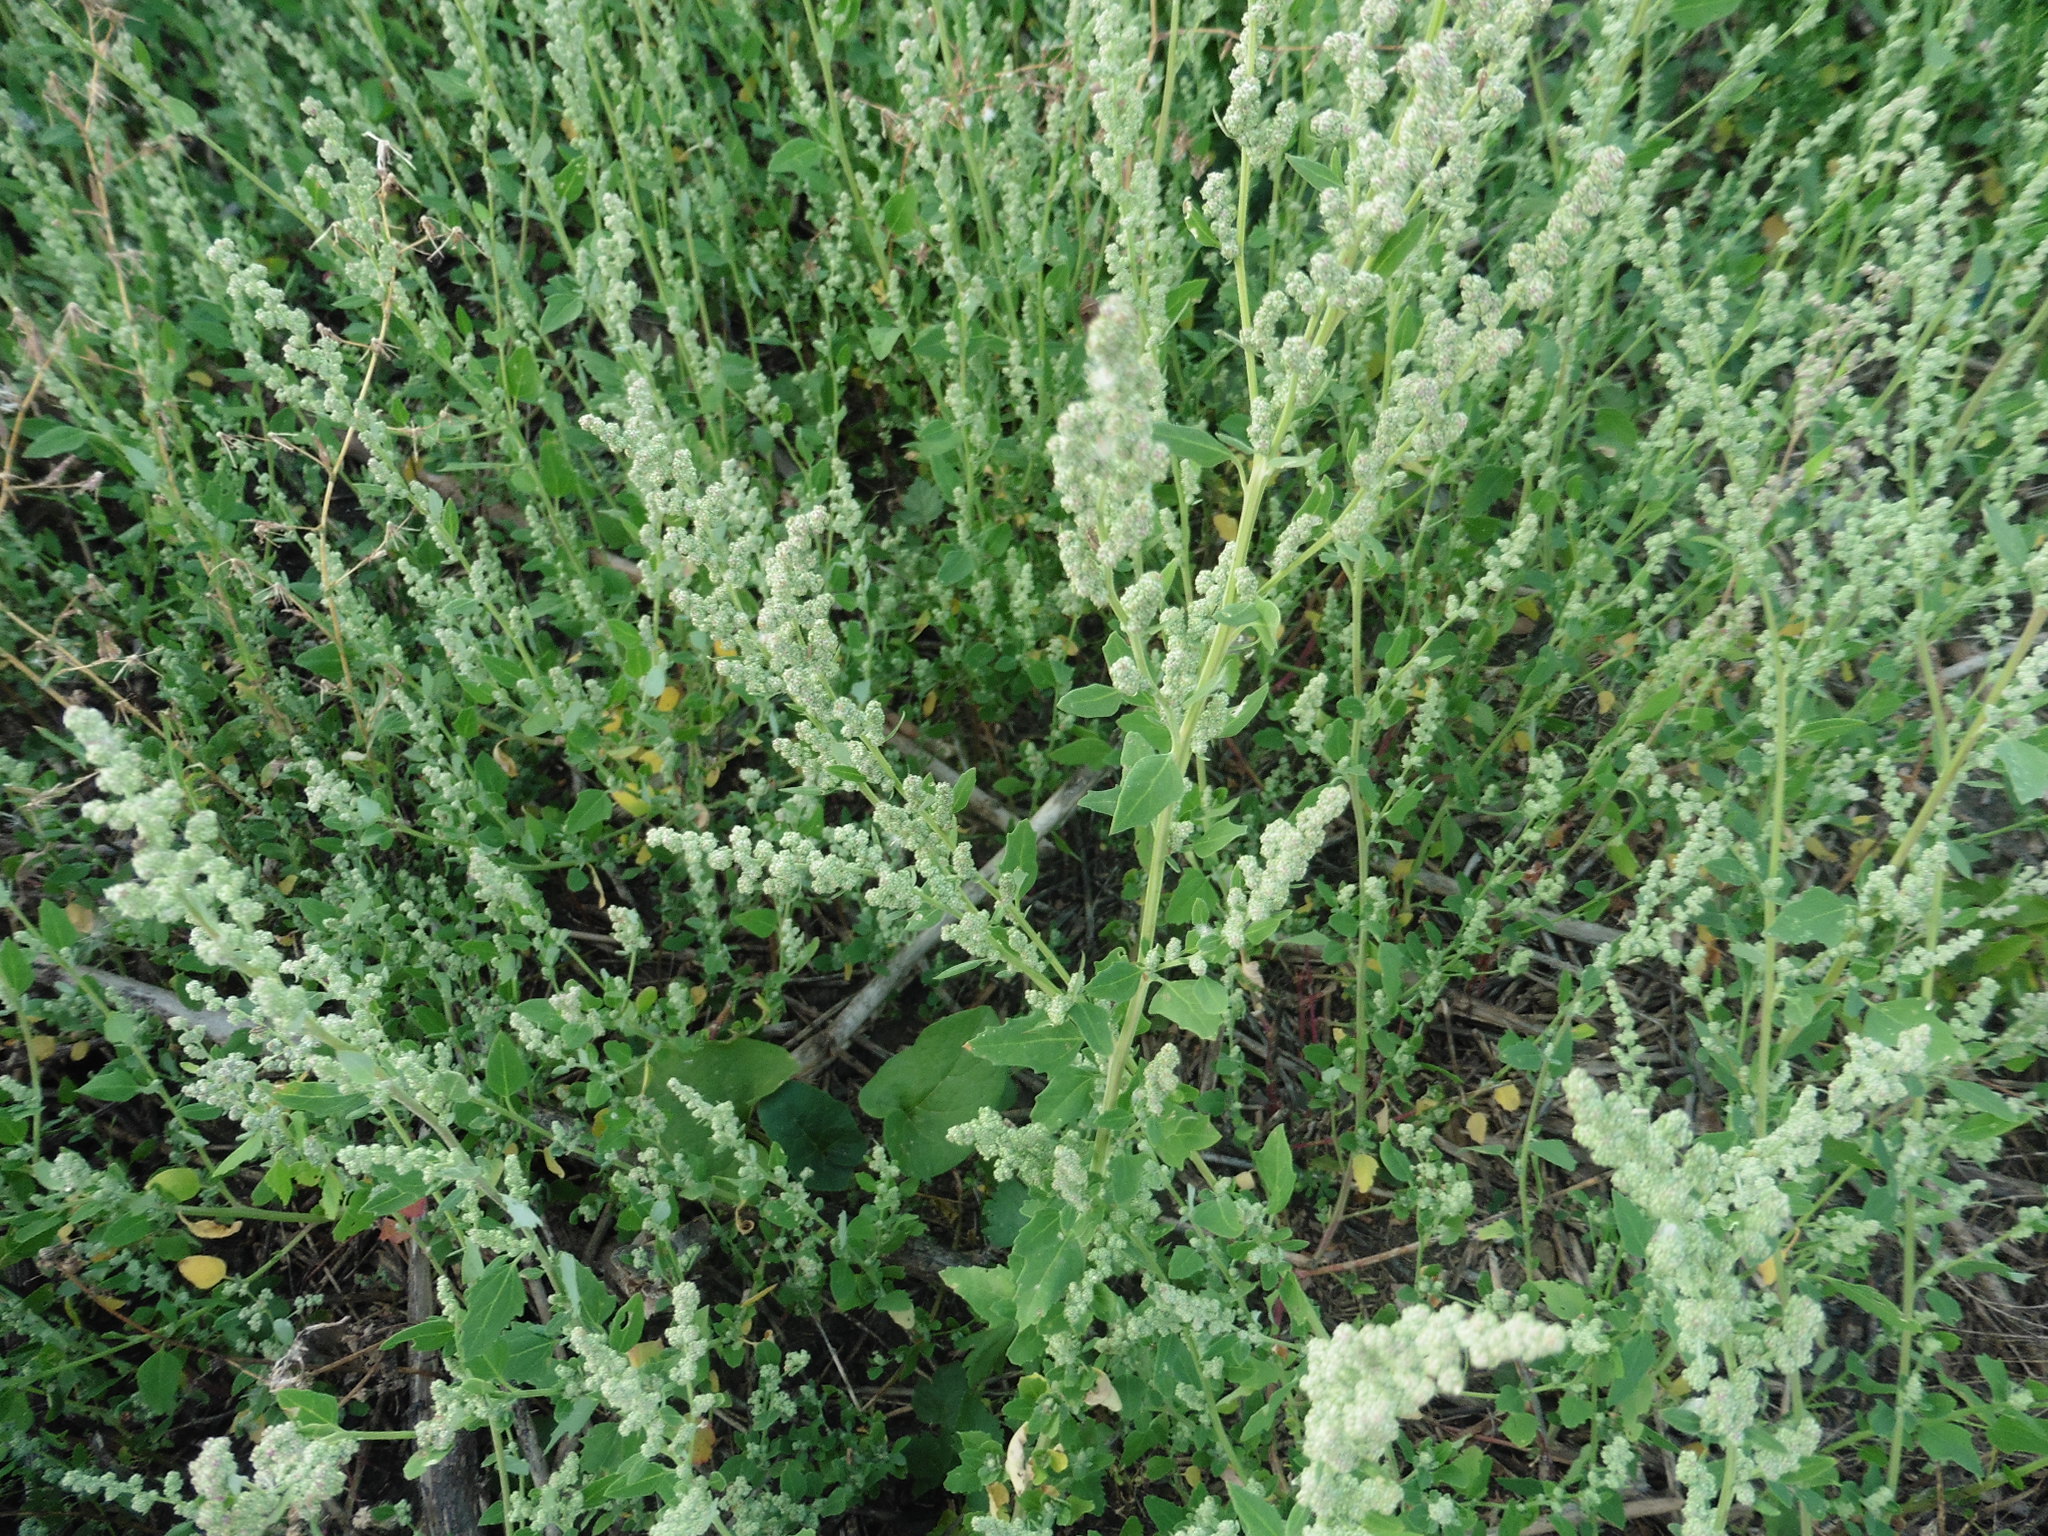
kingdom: Plantae
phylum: Tracheophyta
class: Magnoliopsida
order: Caryophyllales
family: Amaranthaceae
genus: Chenopodium
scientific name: Chenopodium album
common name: Fat-hen
